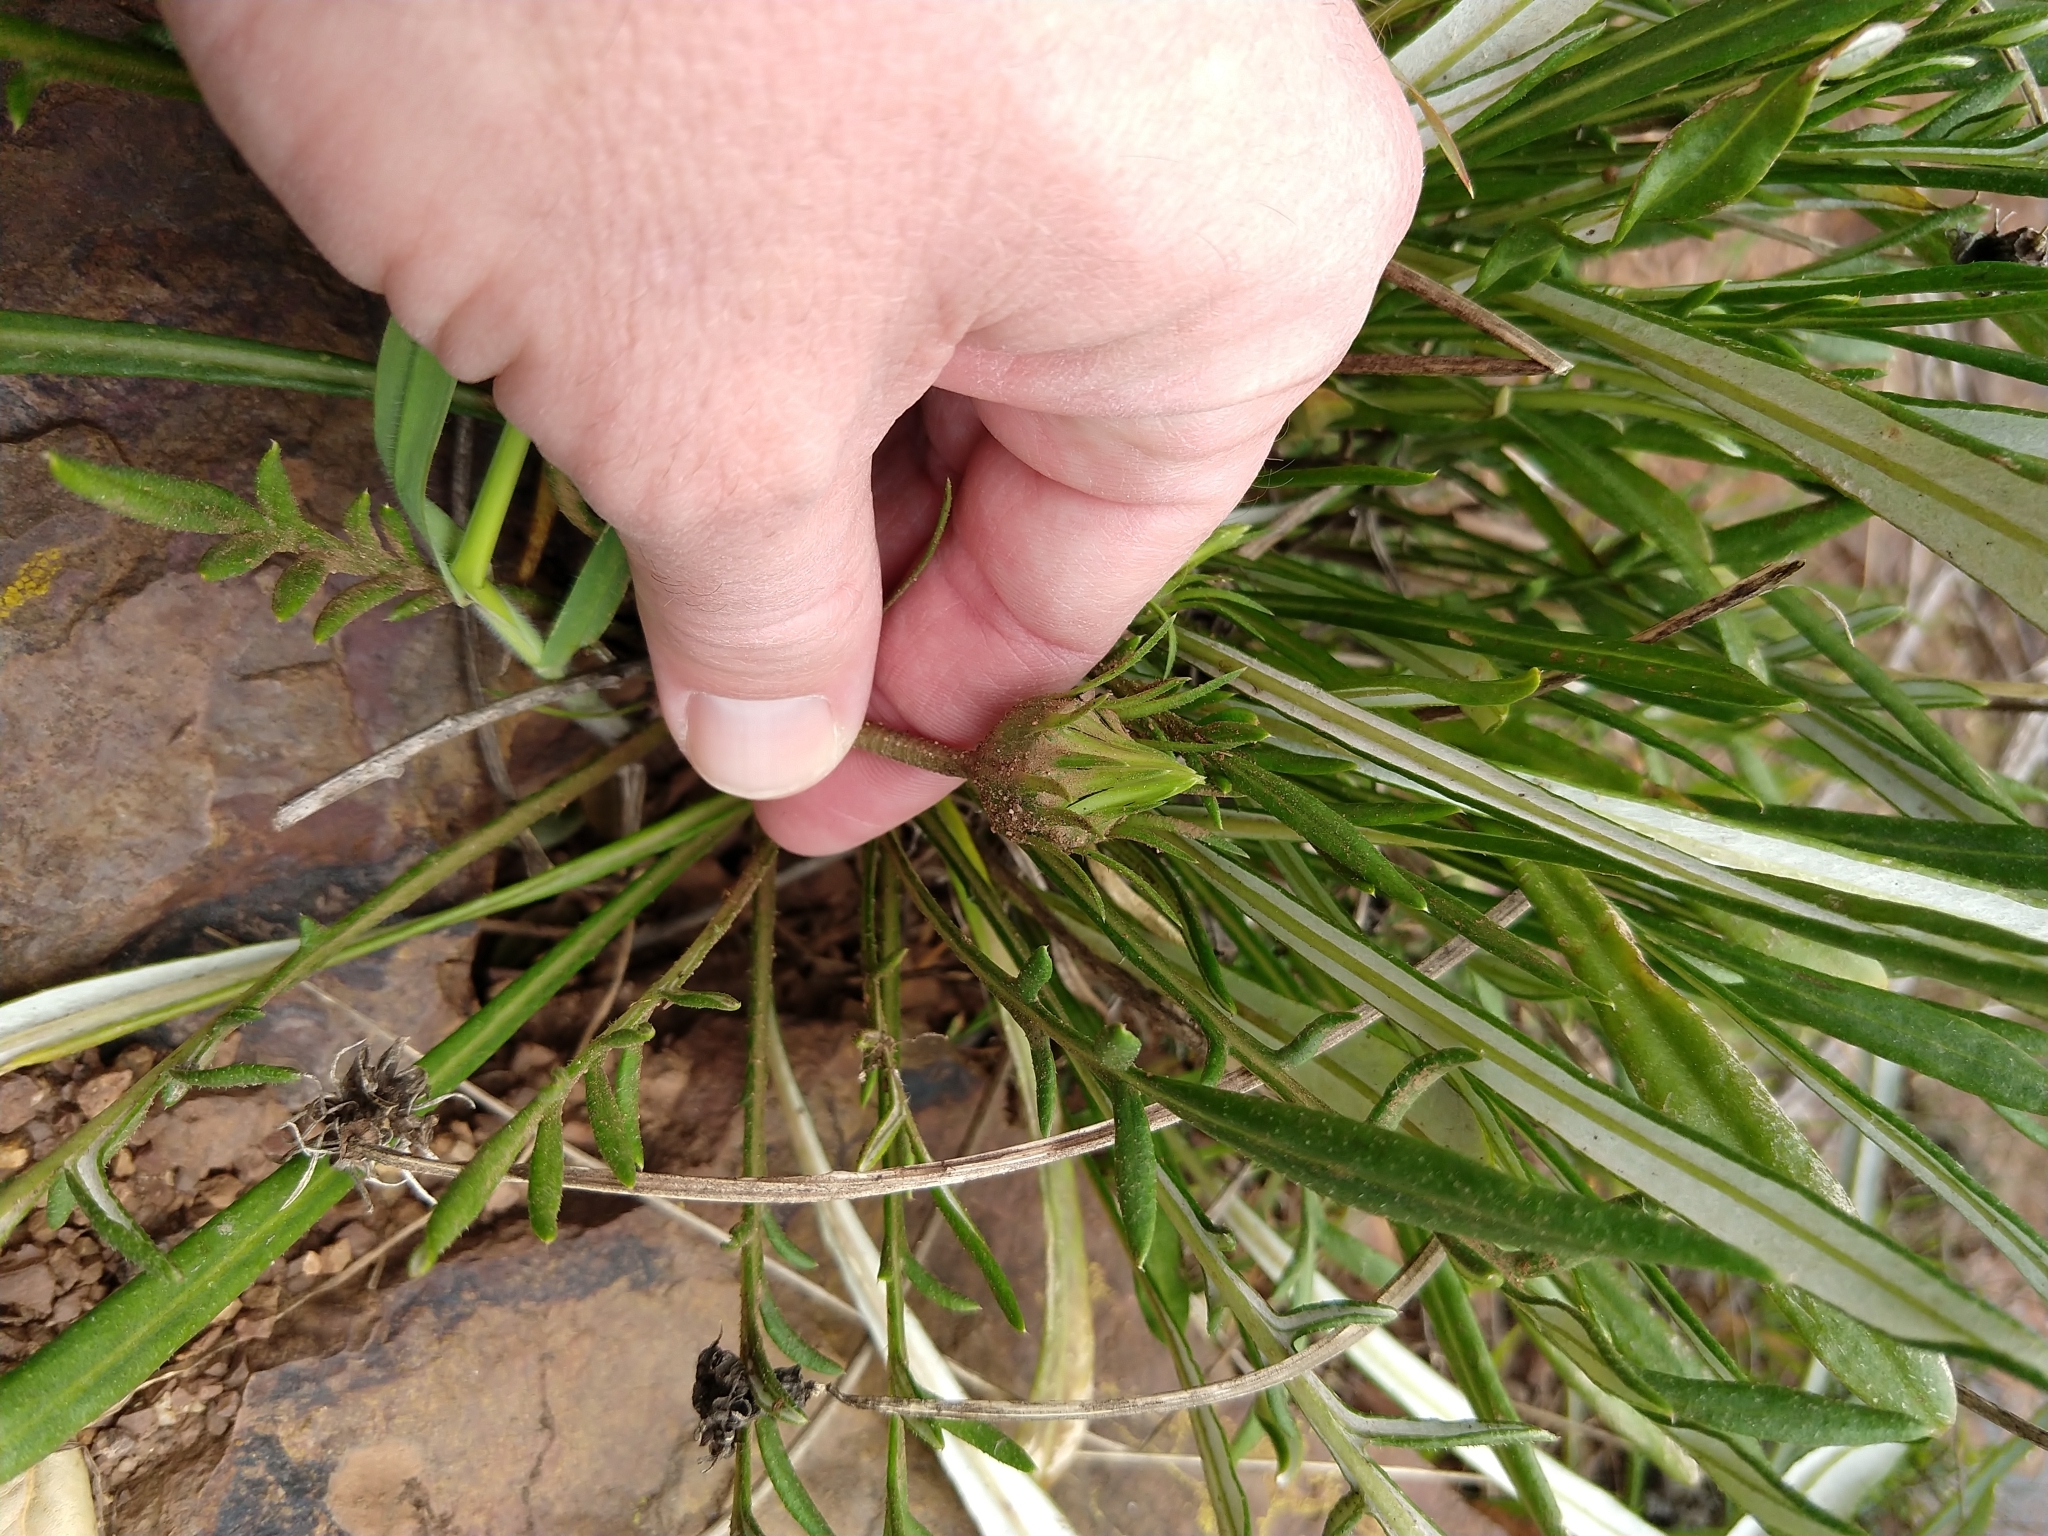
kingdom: Plantae
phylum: Tracheophyta
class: Magnoliopsida
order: Asterales
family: Asteraceae
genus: Gazania
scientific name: Gazania linearis
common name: Treasureflower
